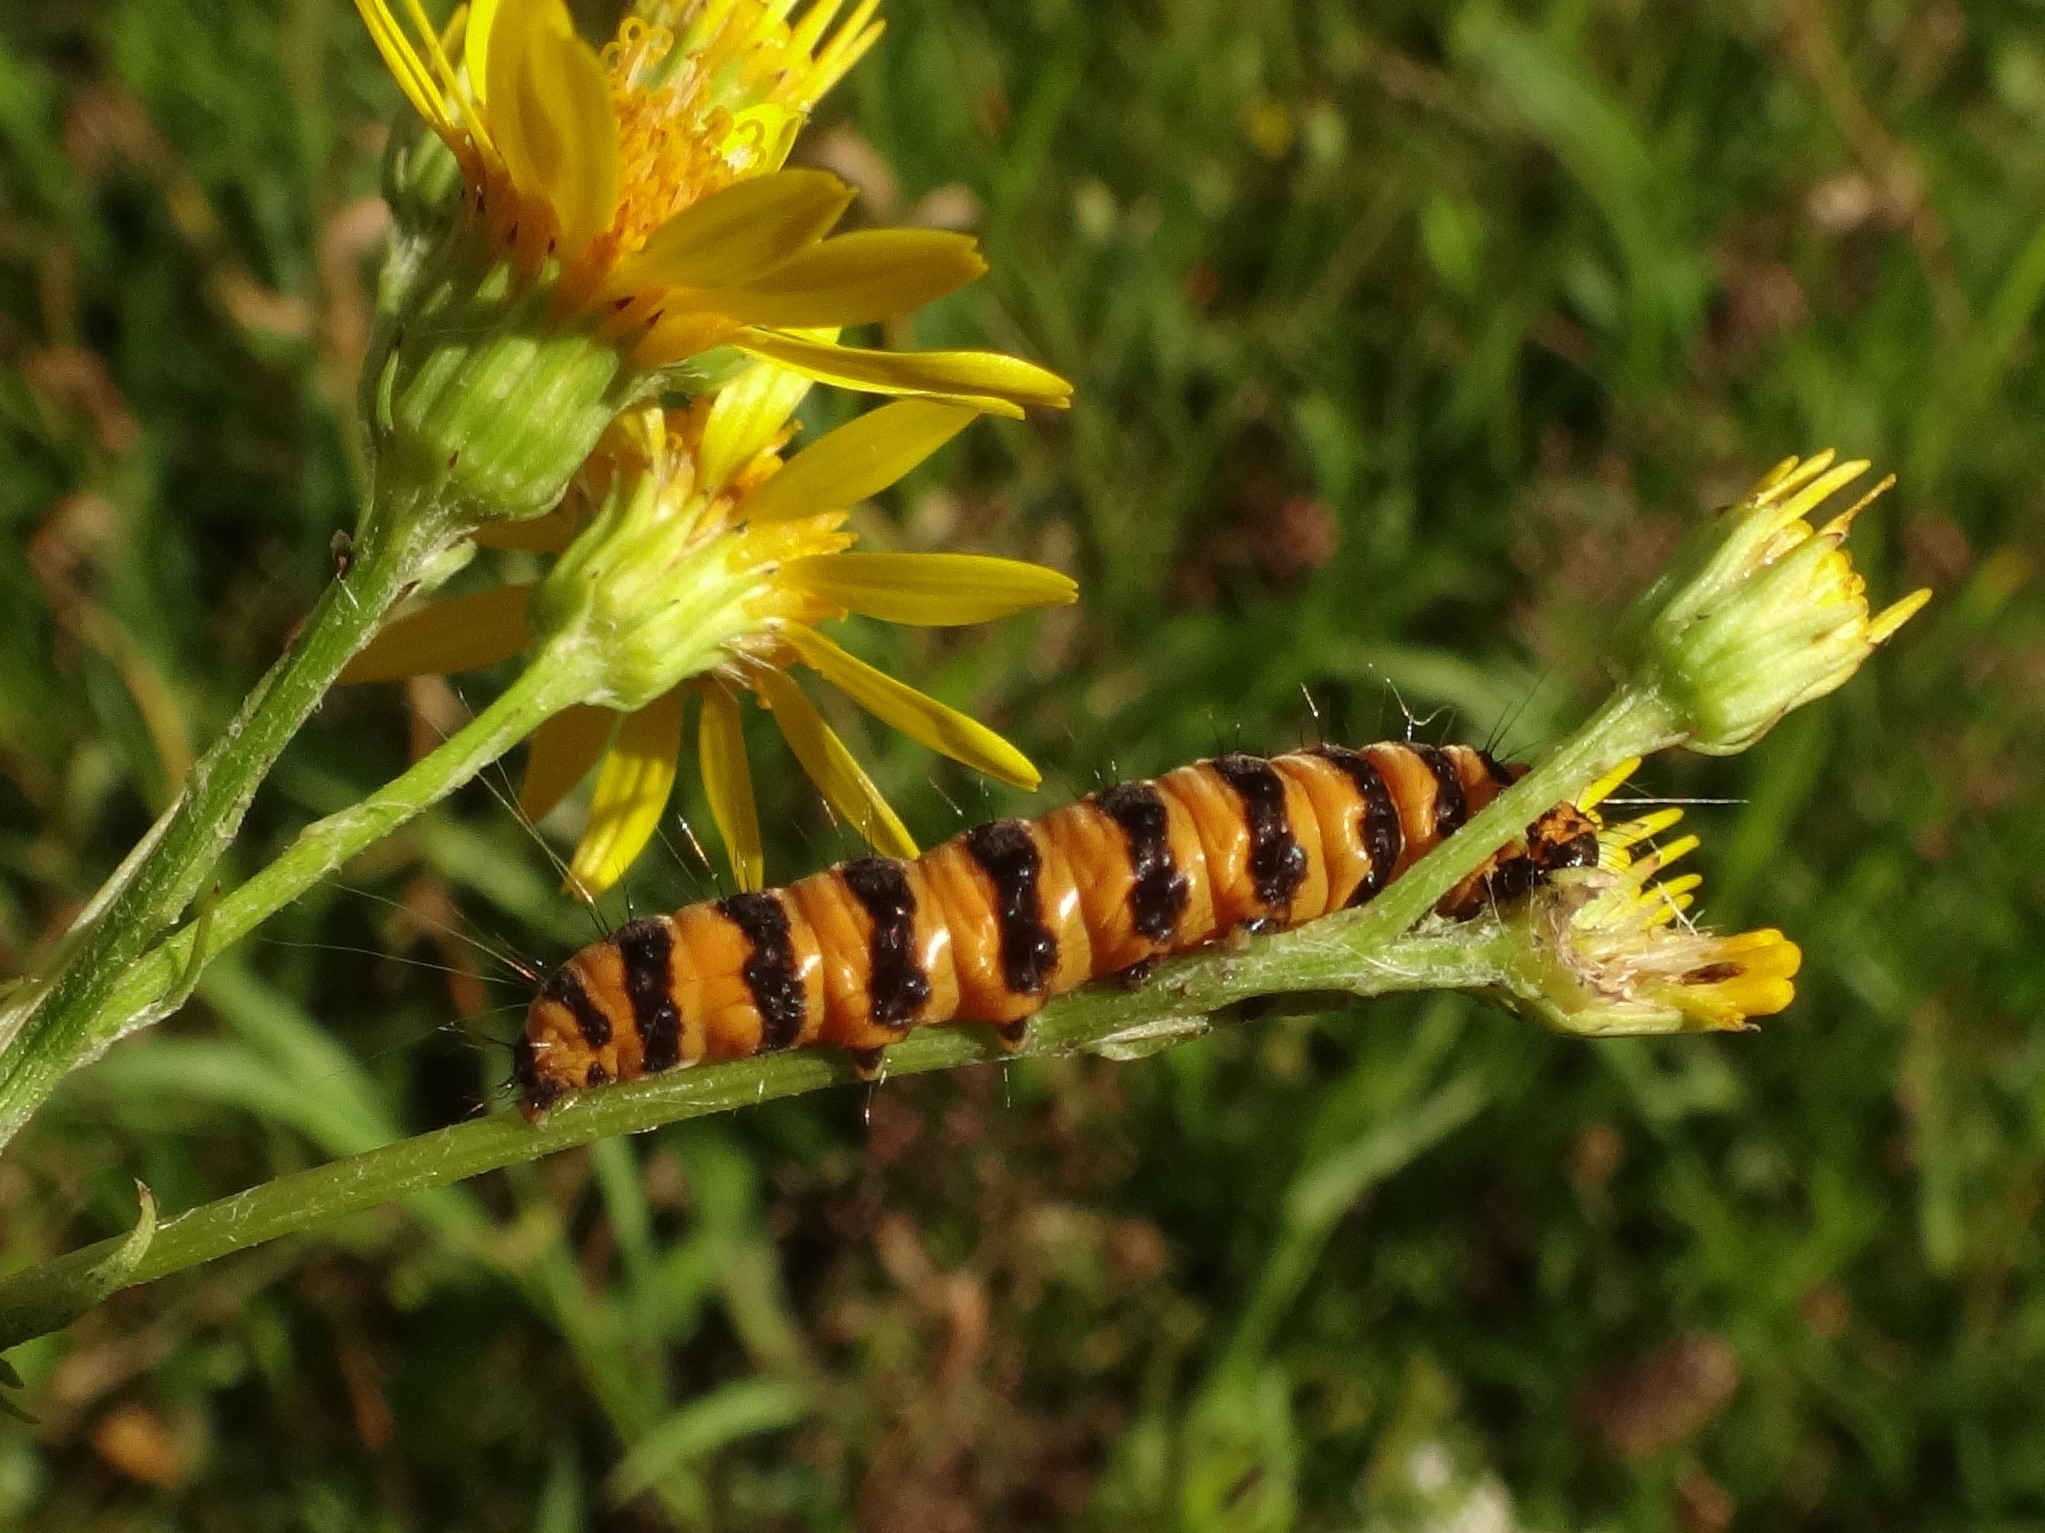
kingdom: Animalia
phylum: Arthropoda
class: Insecta
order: Lepidoptera
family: Erebidae
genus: Tyria
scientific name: Tyria jacobaeae
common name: Cinnabar
